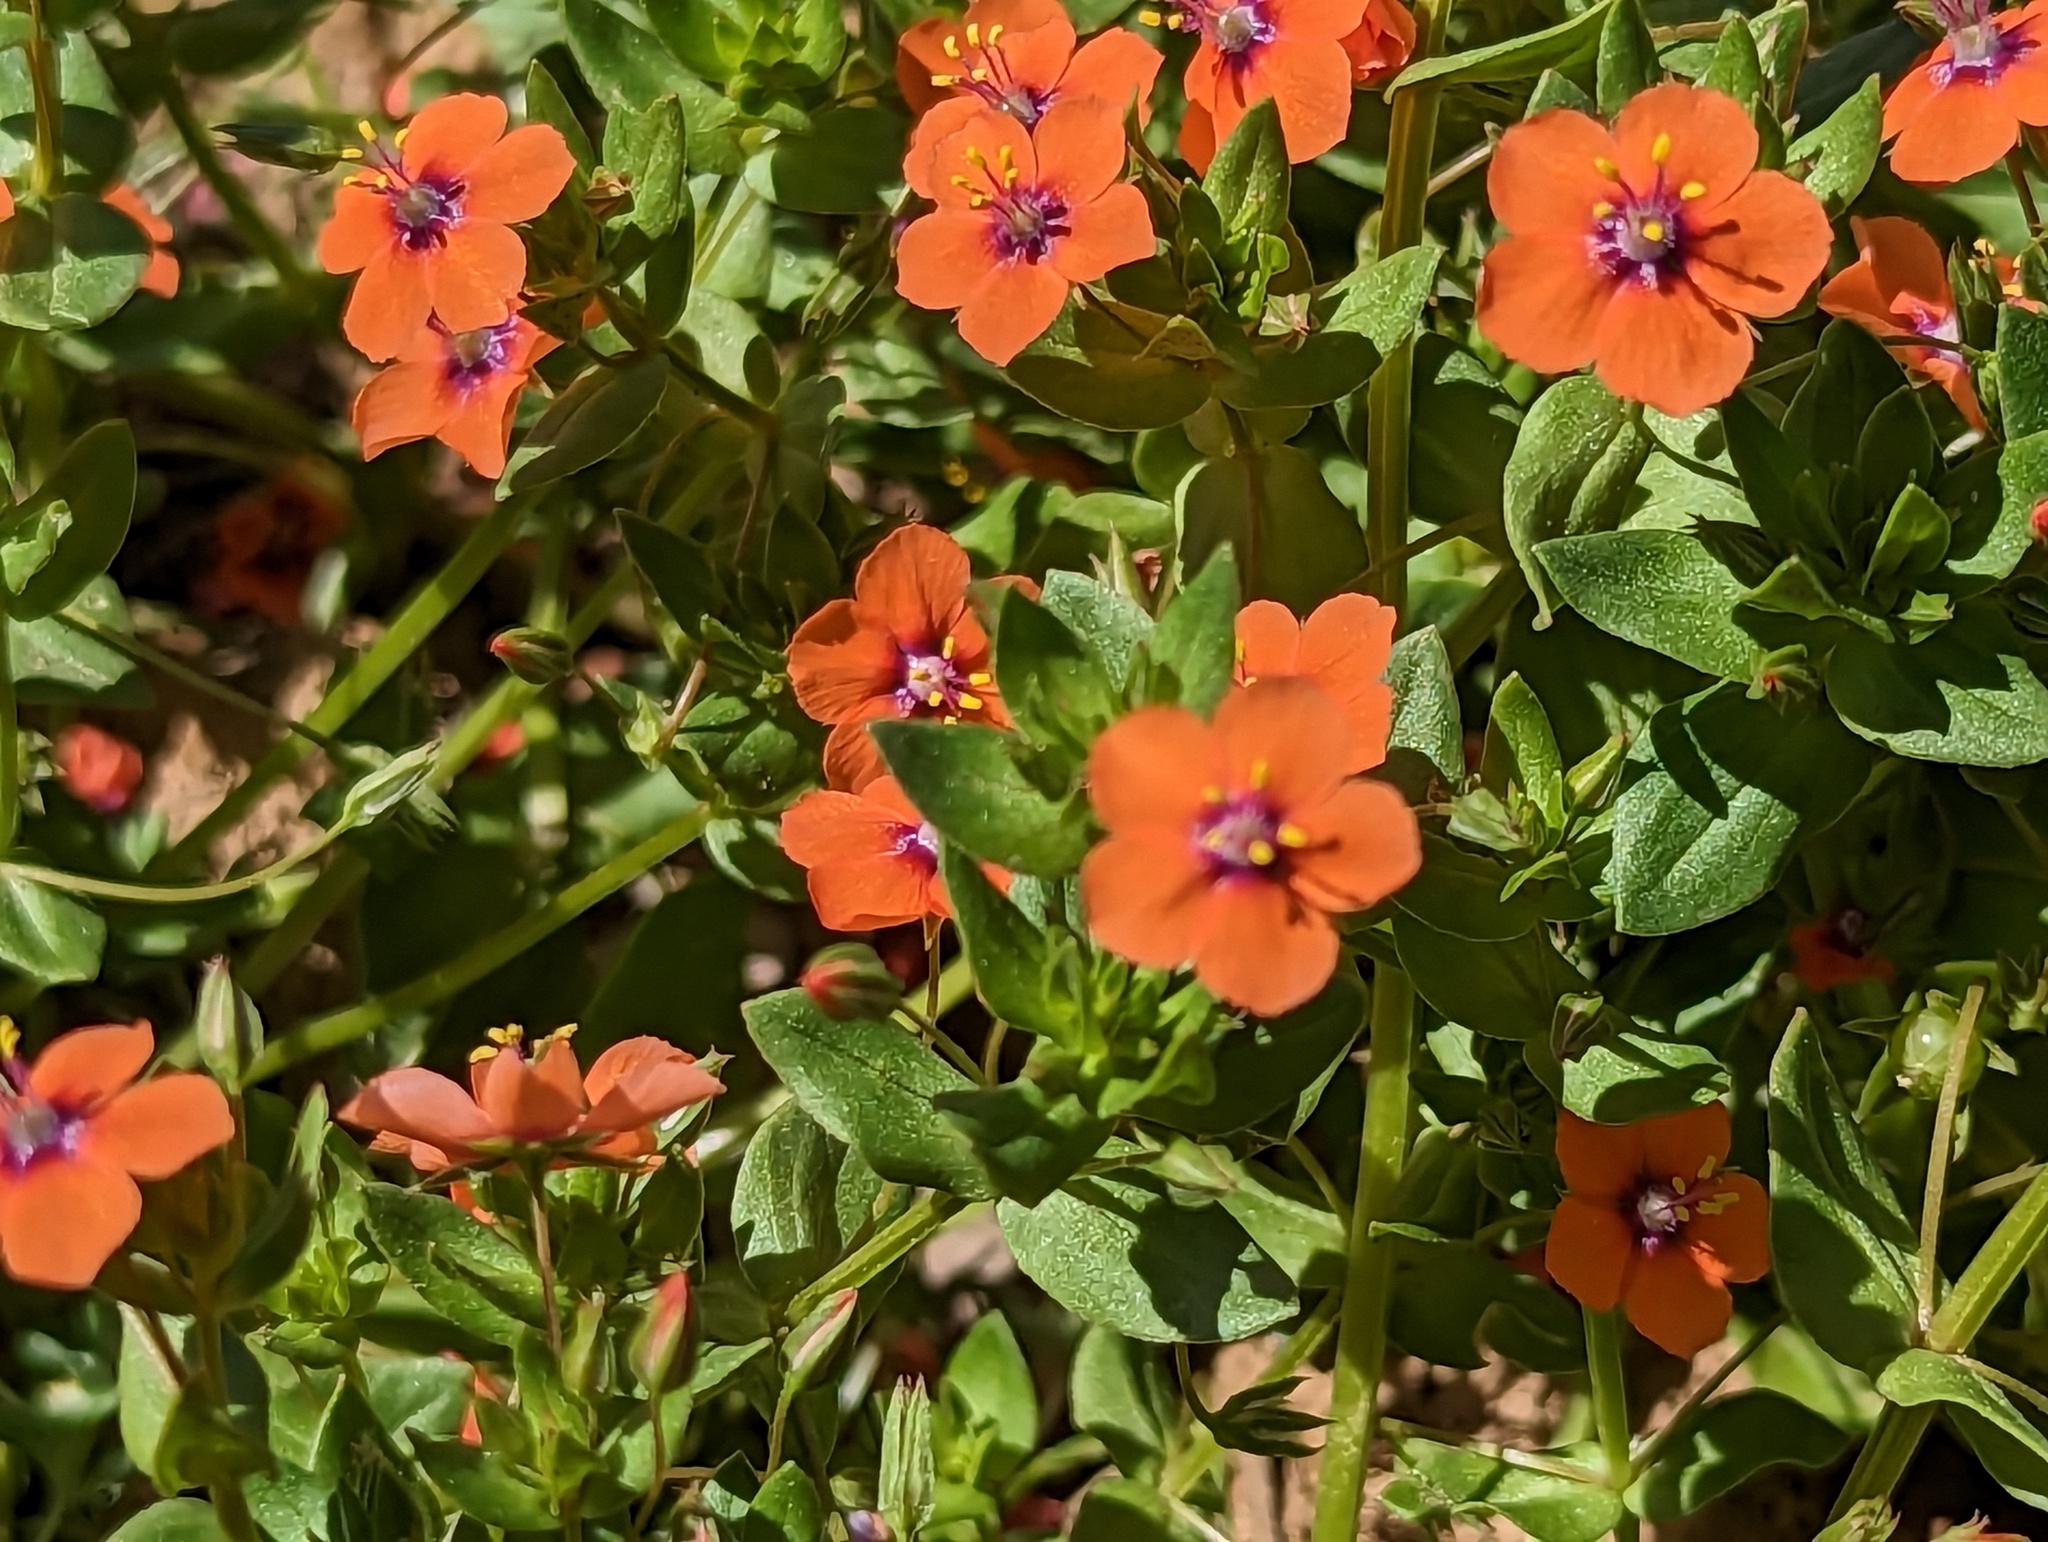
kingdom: Plantae
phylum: Tracheophyta
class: Magnoliopsida
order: Ericales
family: Primulaceae
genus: Lysimachia
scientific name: Lysimachia arvensis
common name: Scarlet pimpernel
